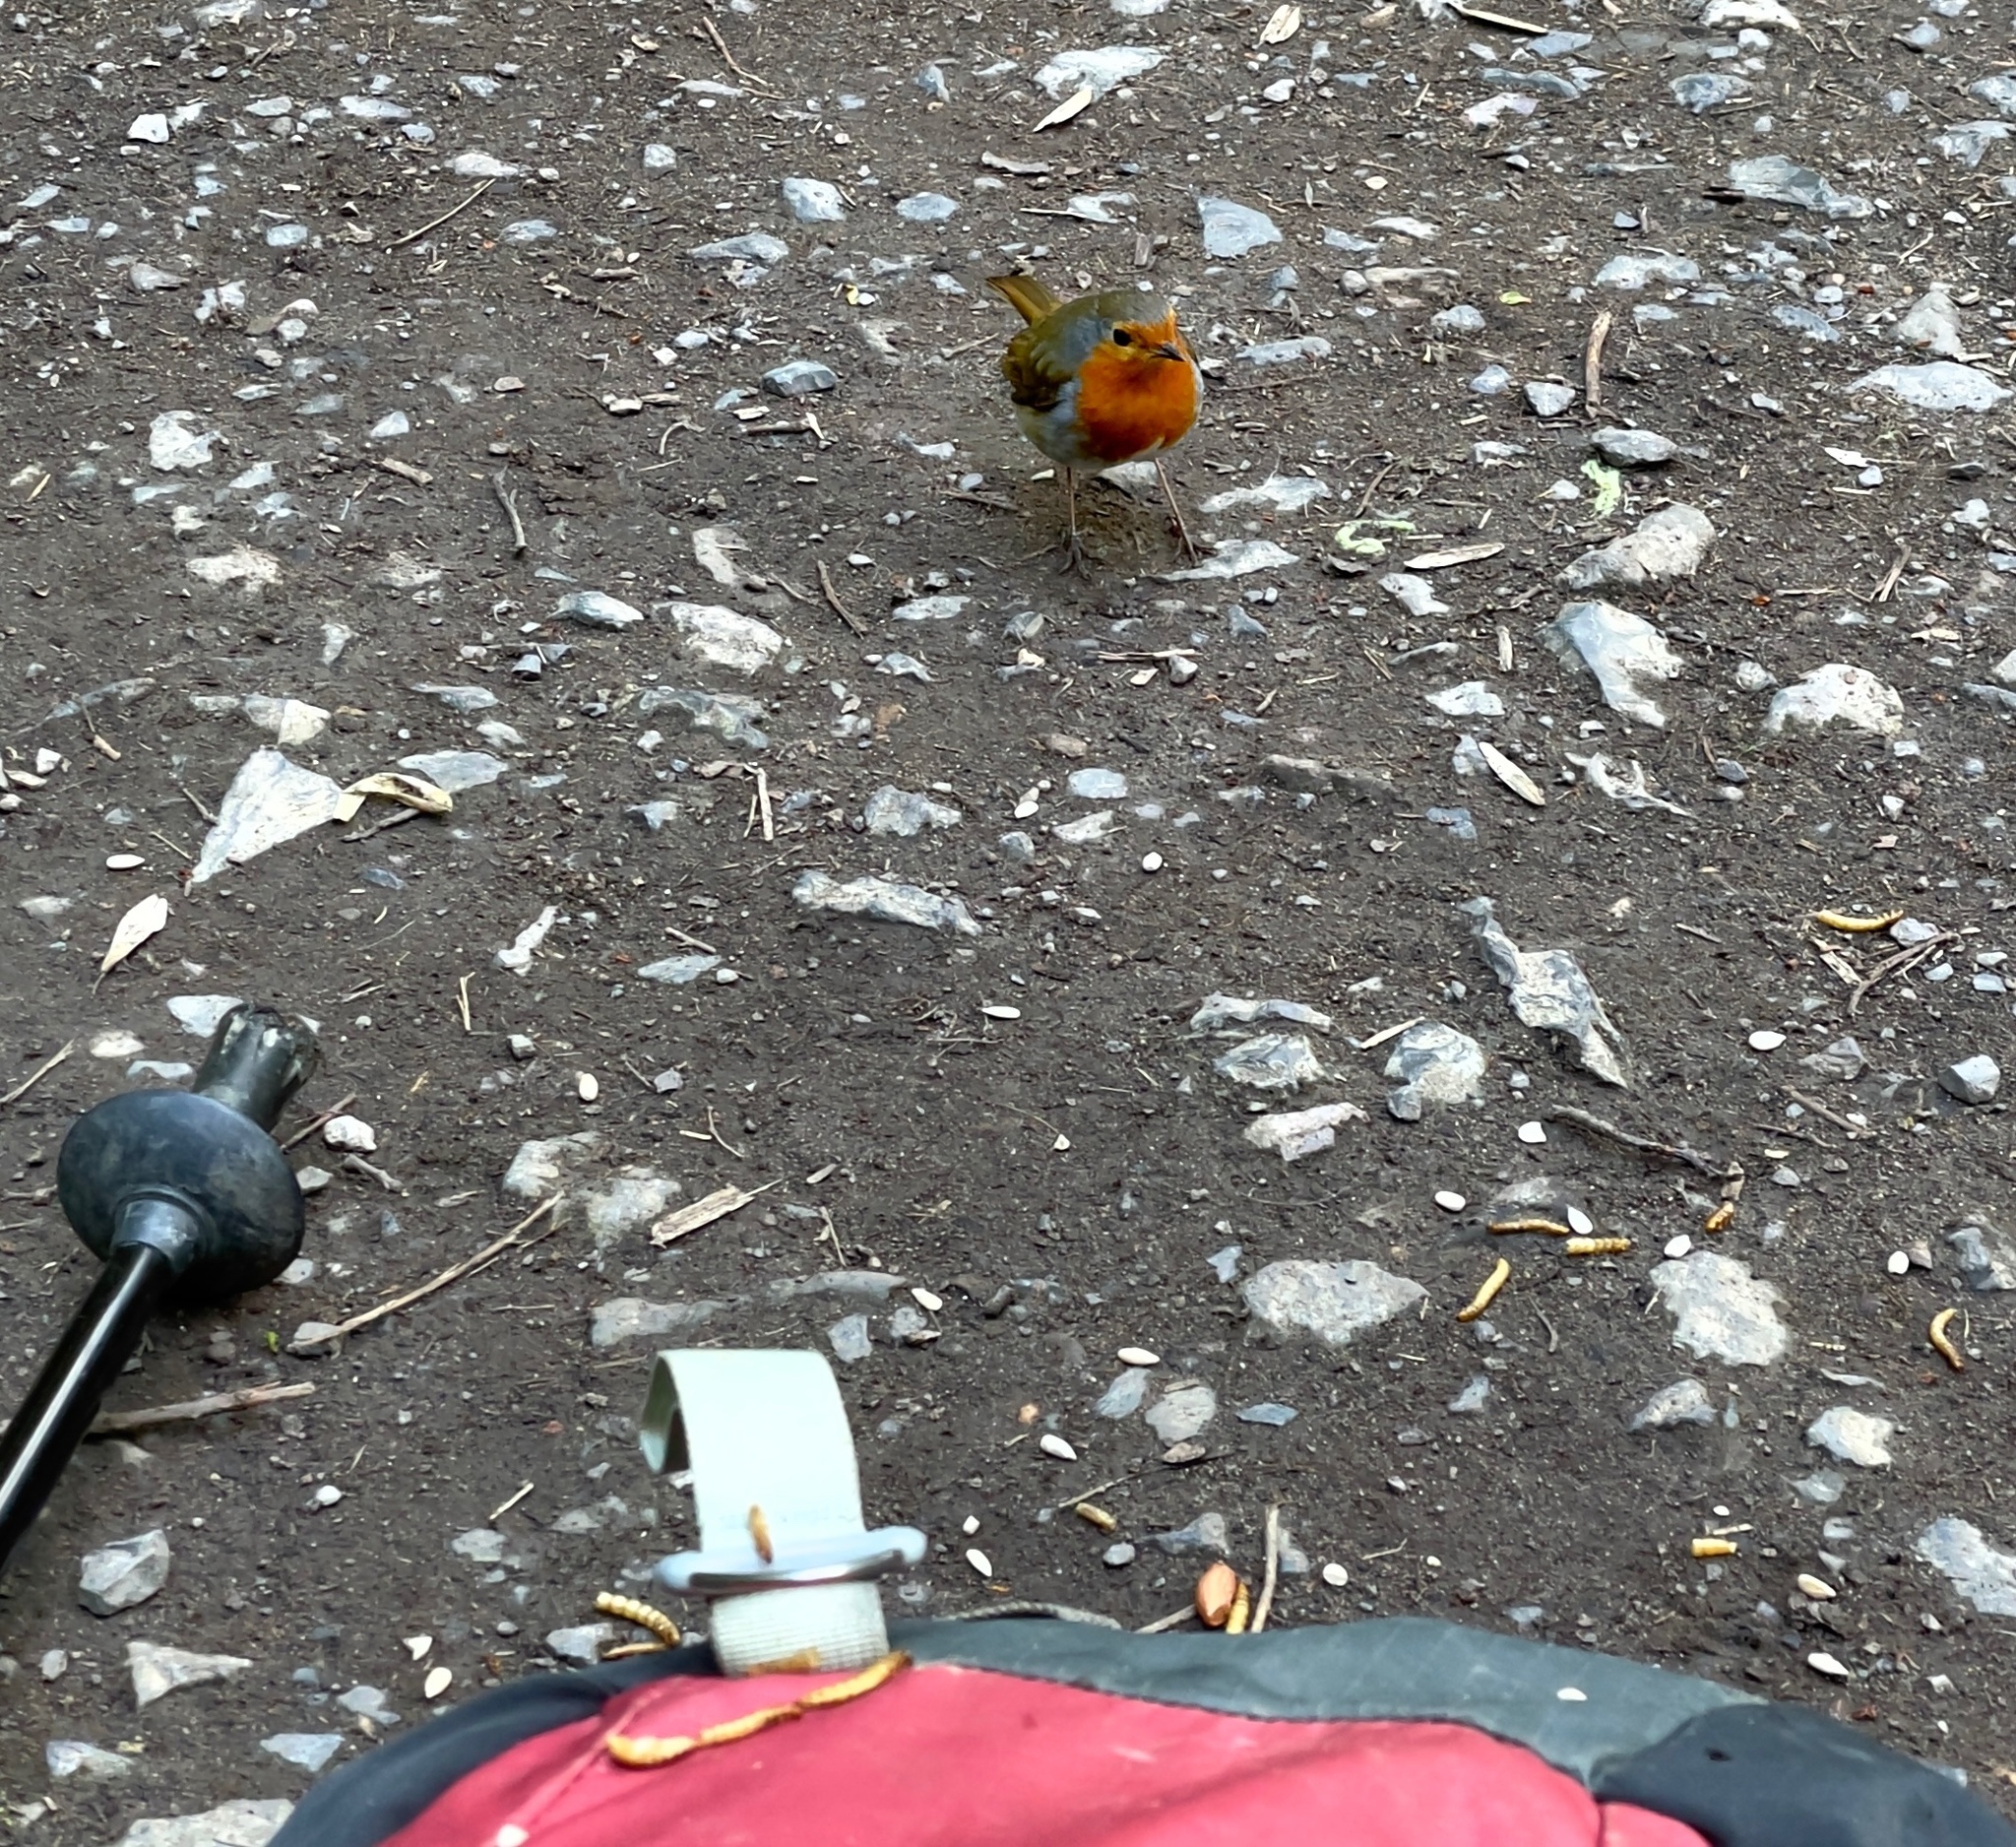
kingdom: Animalia
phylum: Chordata
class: Aves
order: Passeriformes
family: Muscicapidae
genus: Erithacus
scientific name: Erithacus rubecula
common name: European robin
